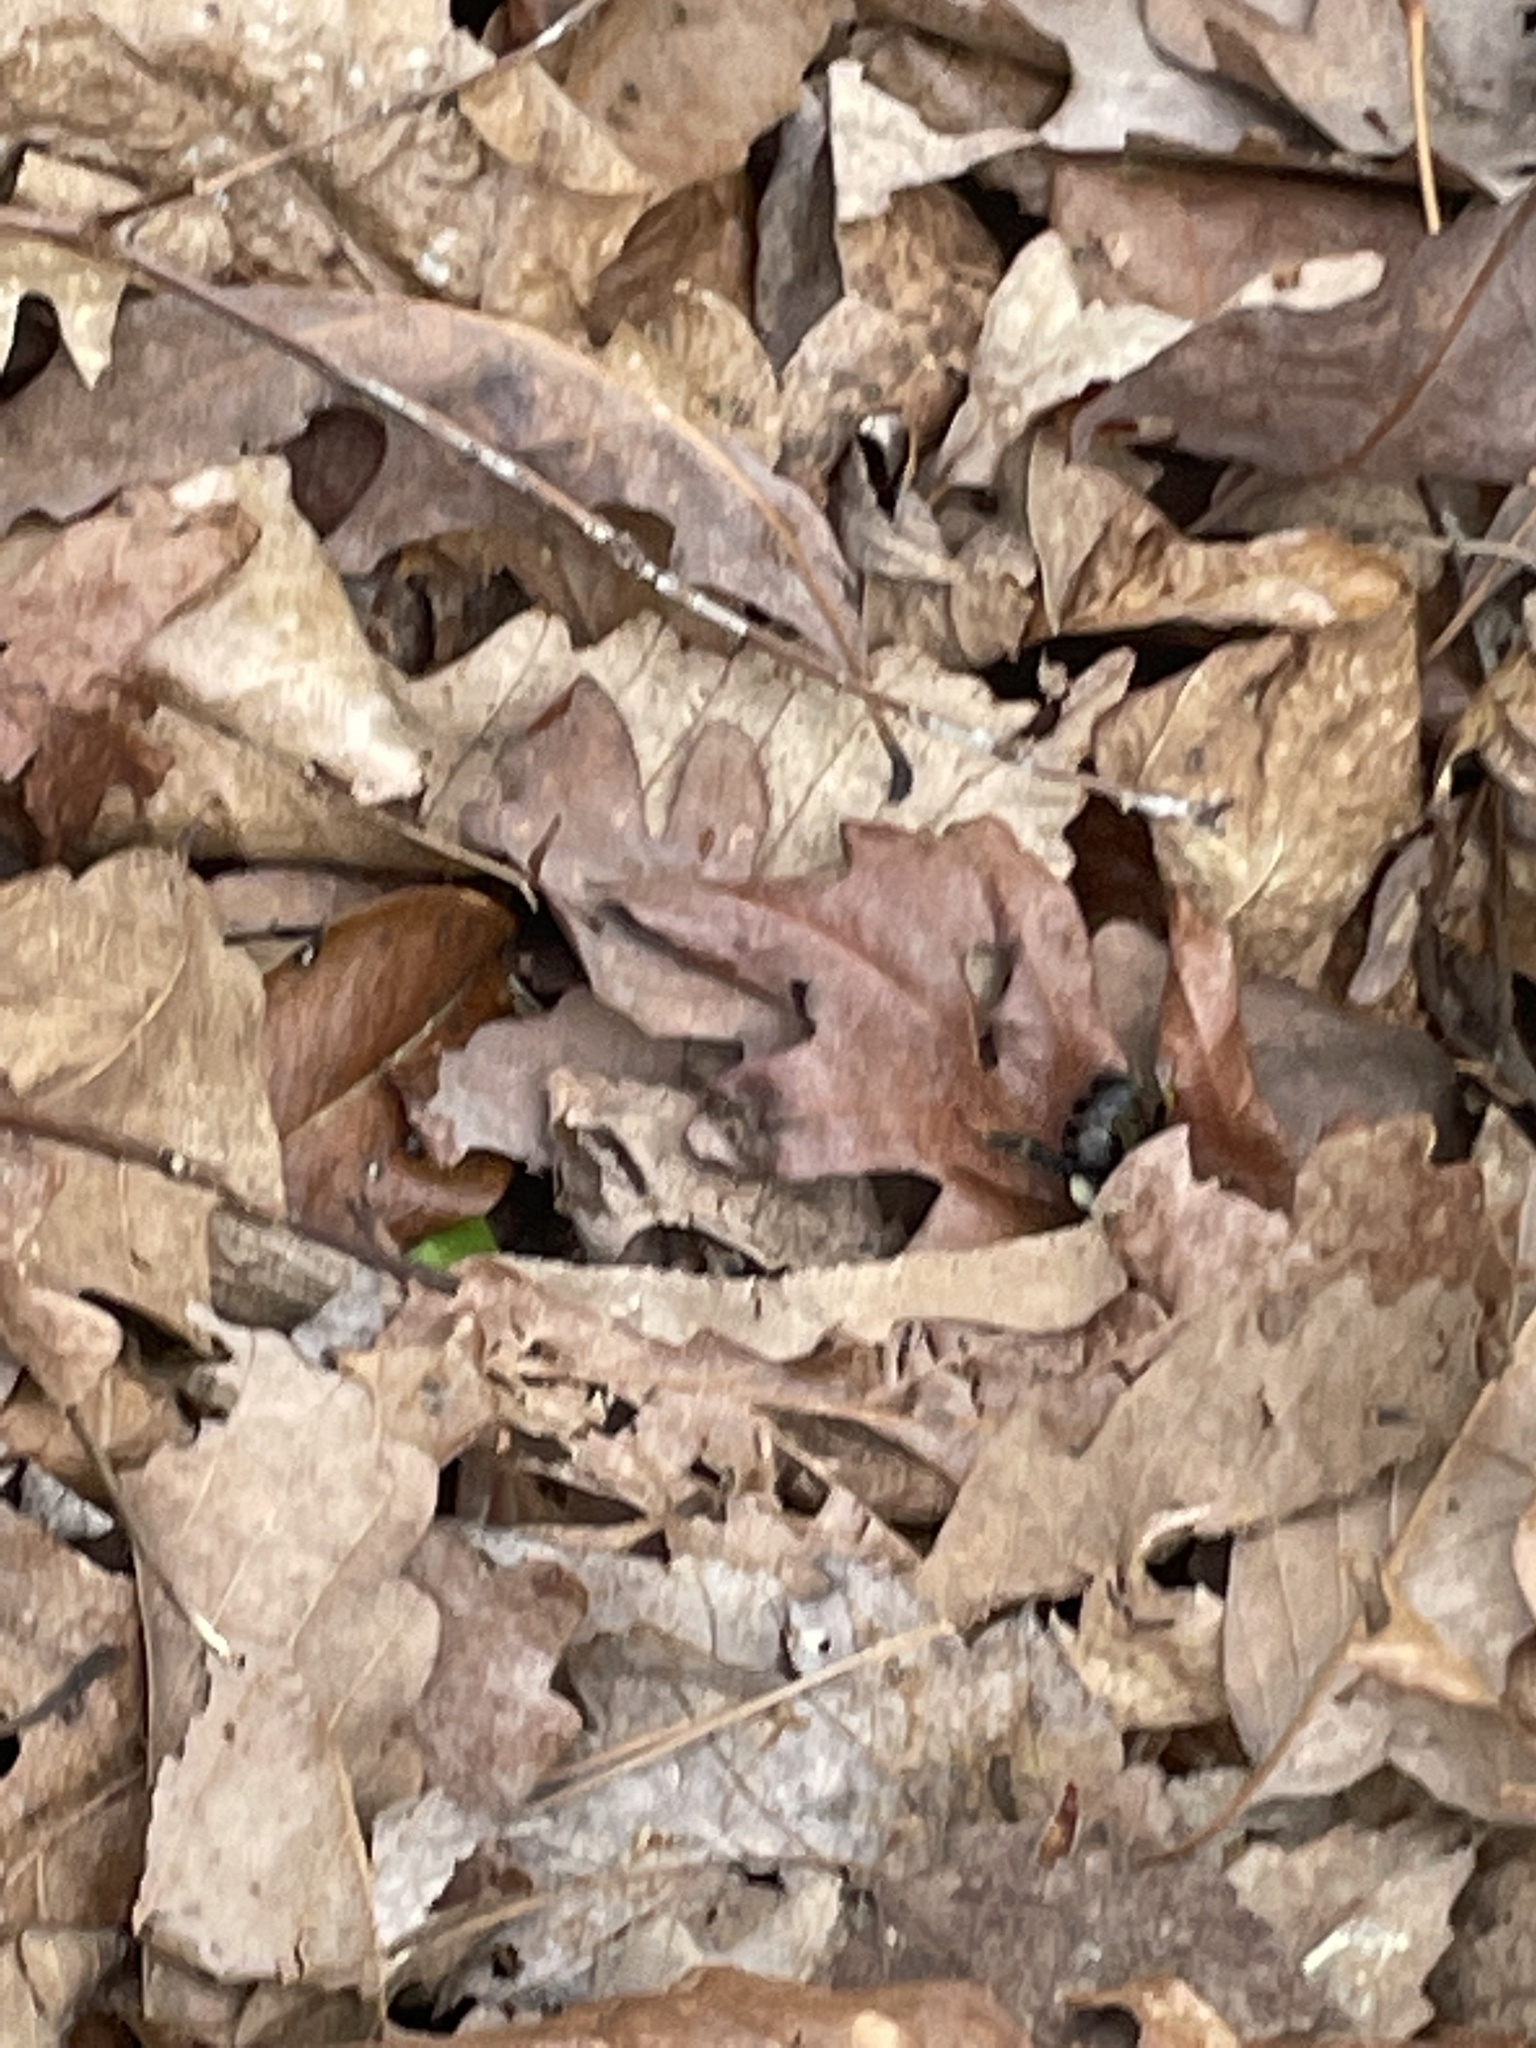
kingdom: Animalia
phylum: Arthropoda
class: Insecta
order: Hymenoptera
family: Apidae
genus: Bombus
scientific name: Bombus impatiens
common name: Common eastern bumble bee
